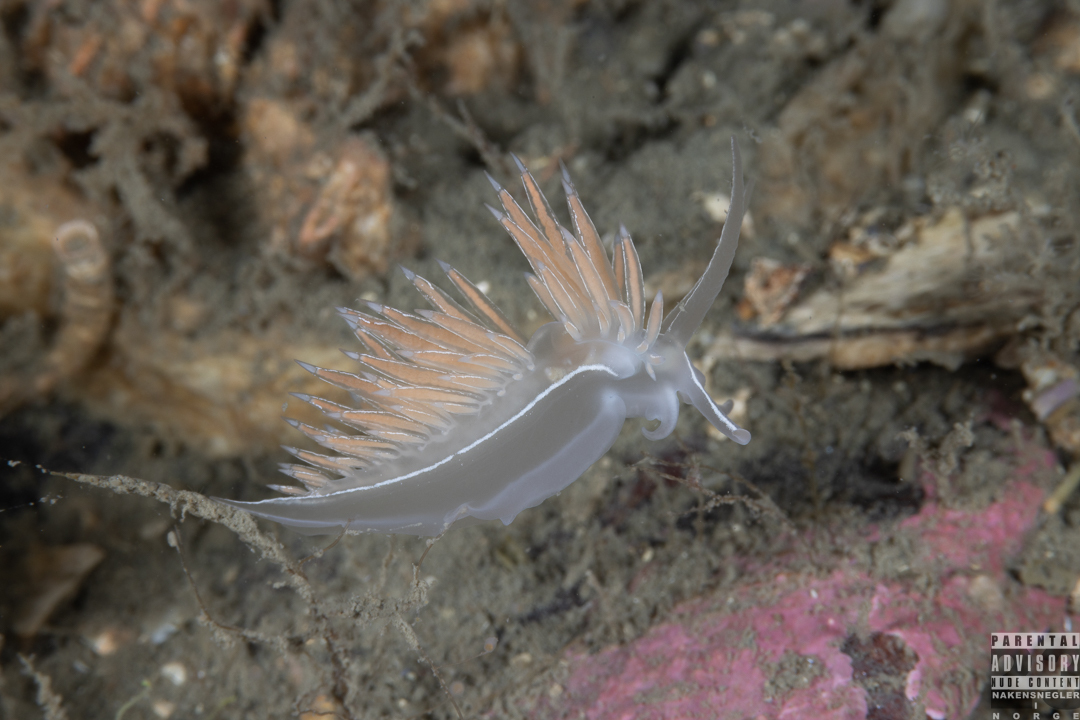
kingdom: Animalia
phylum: Mollusca
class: Gastropoda
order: Nudibranchia
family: Coryphellidae
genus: Coryphella
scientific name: Coryphella chriskaugei
